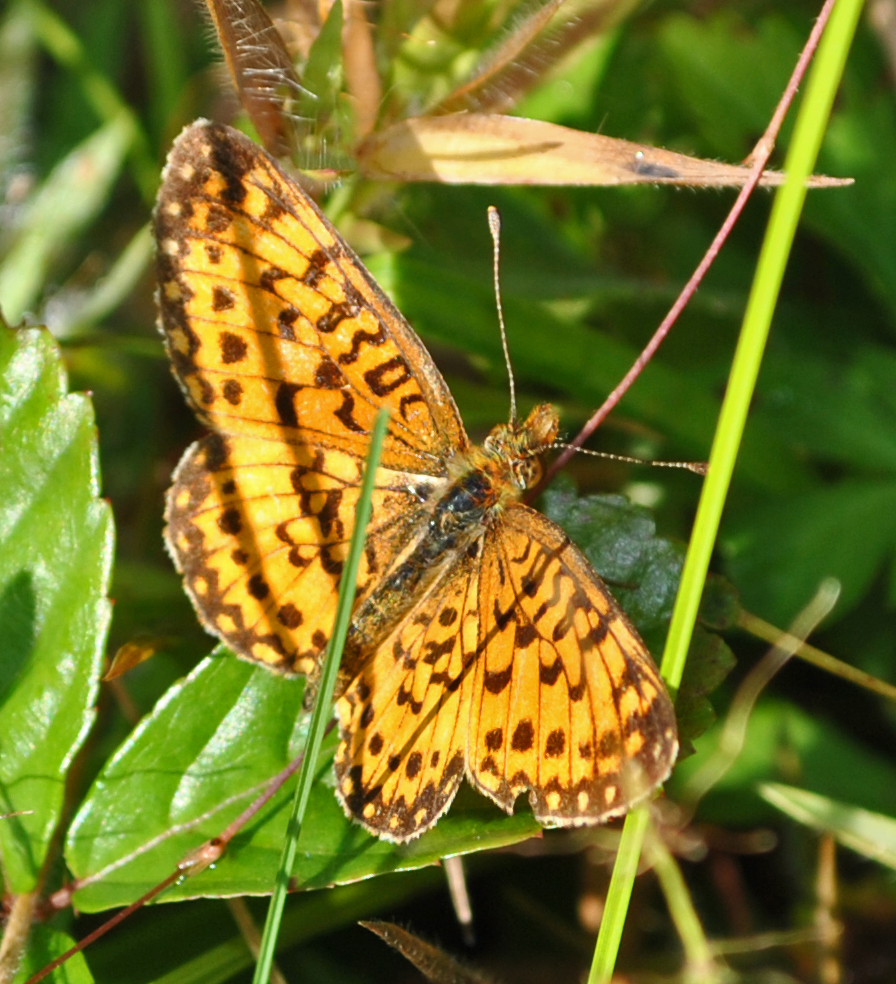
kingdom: Animalia
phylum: Arthropoda
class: Insecta
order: Lepidoptera
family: Nymphalidae
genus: Boloria
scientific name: Boloria
